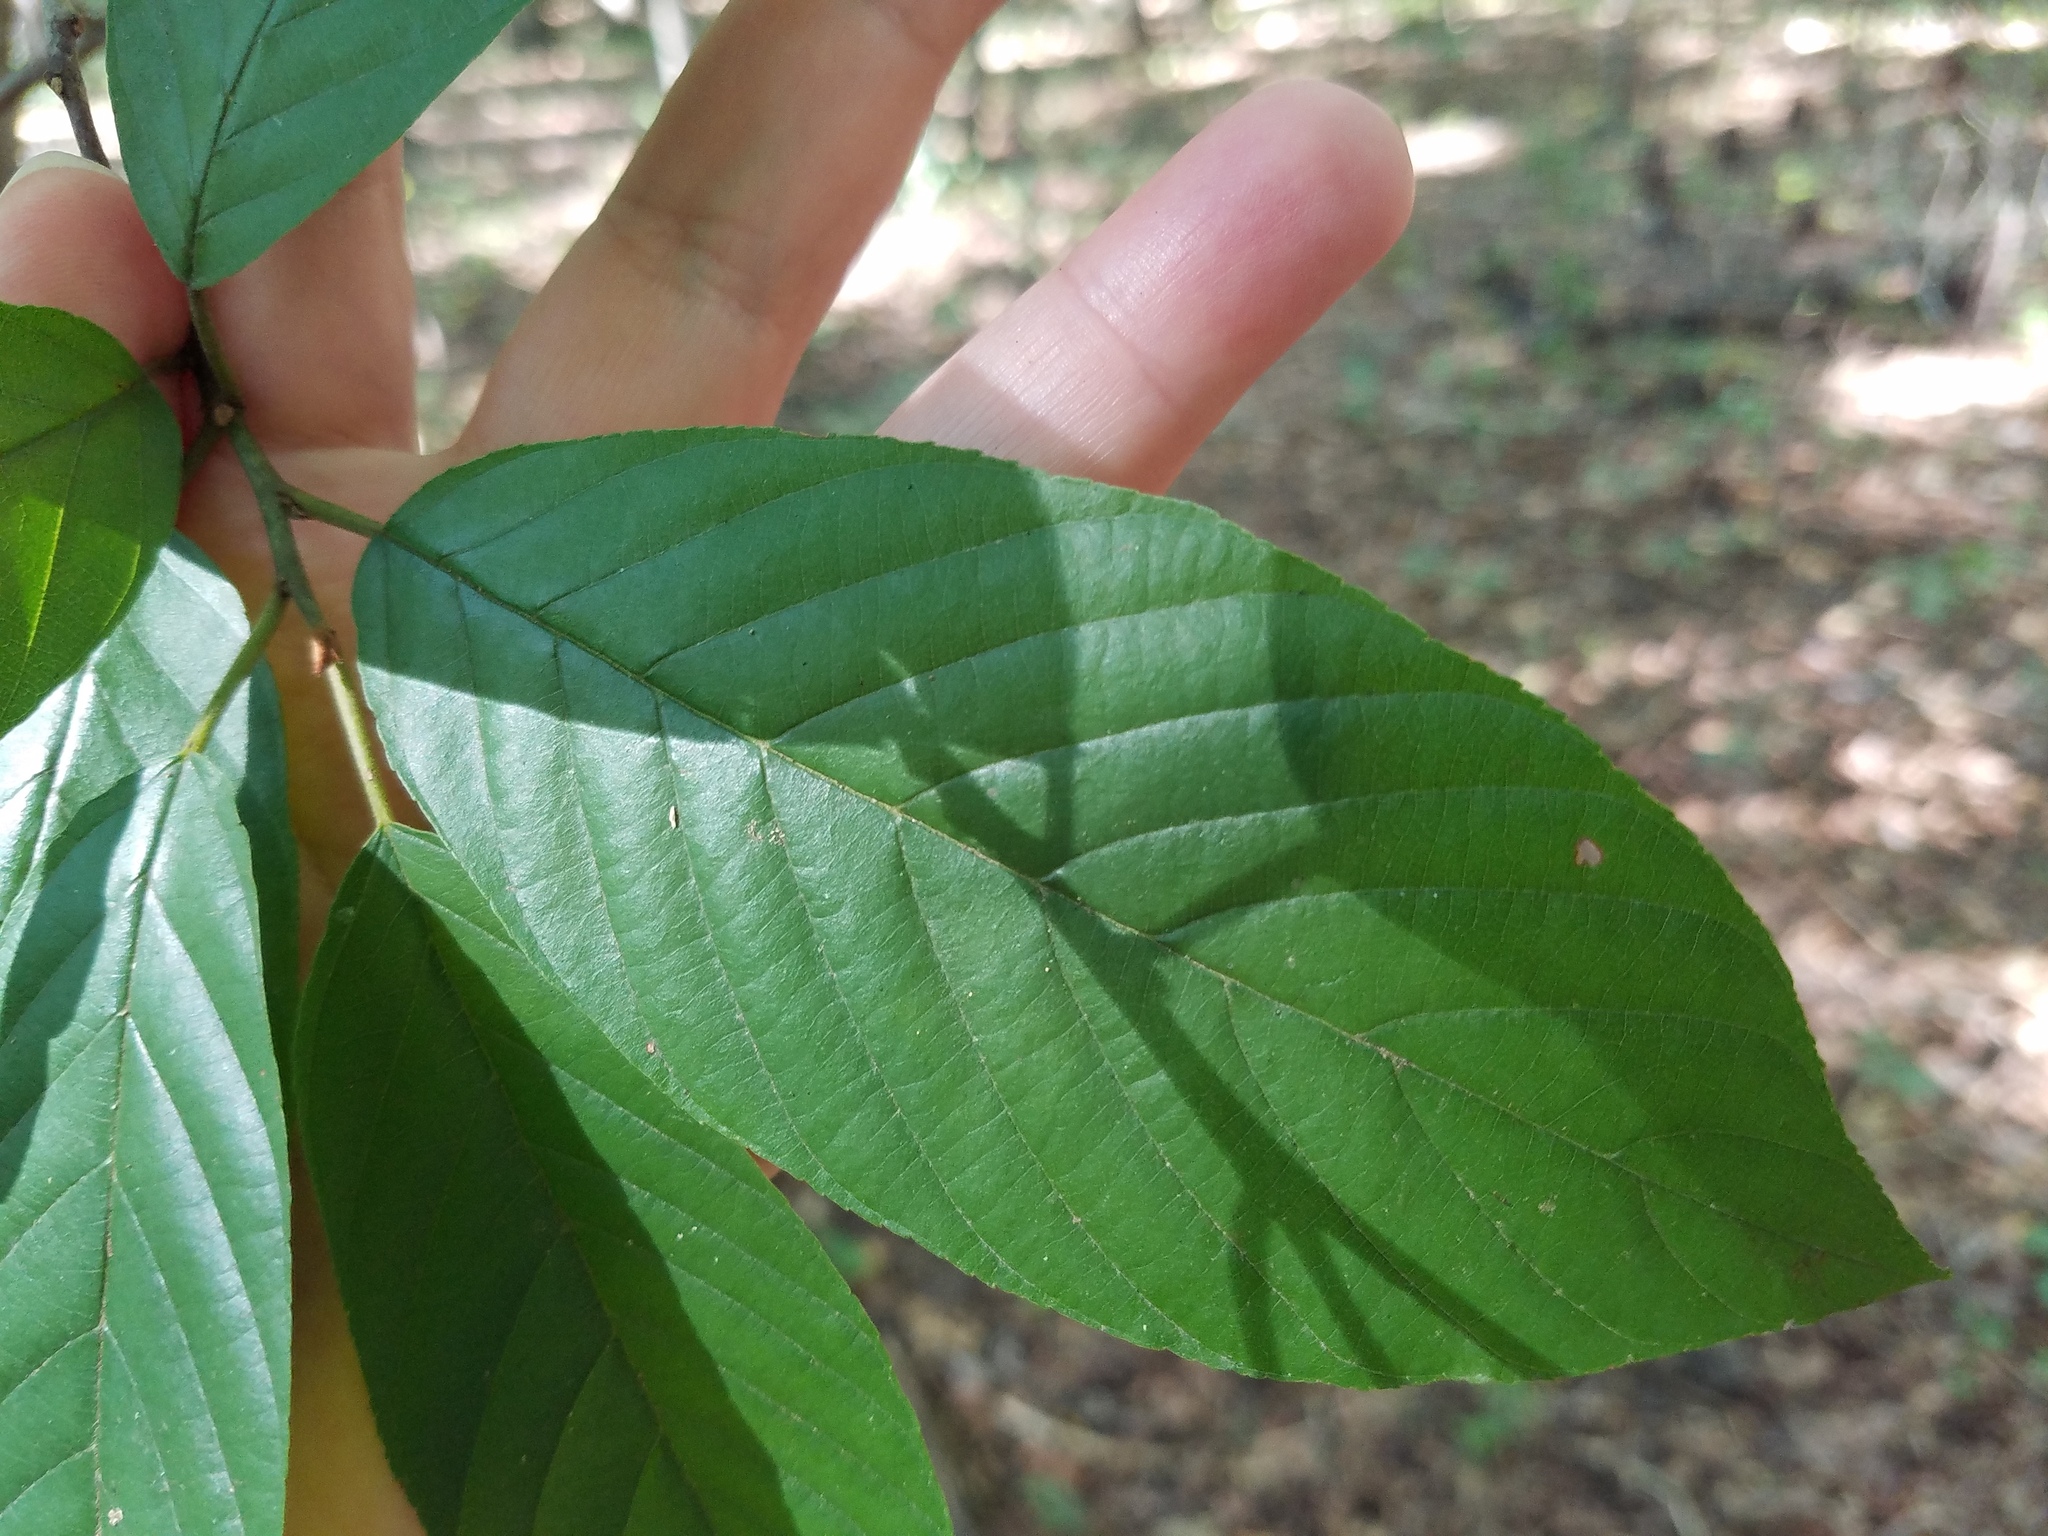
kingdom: Plantae
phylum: Tracheophyta
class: Magnoliopsida
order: Rosales
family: Rhamnaceae
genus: Frangula
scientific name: Frangula caroliniana
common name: Carolina buckthorn
